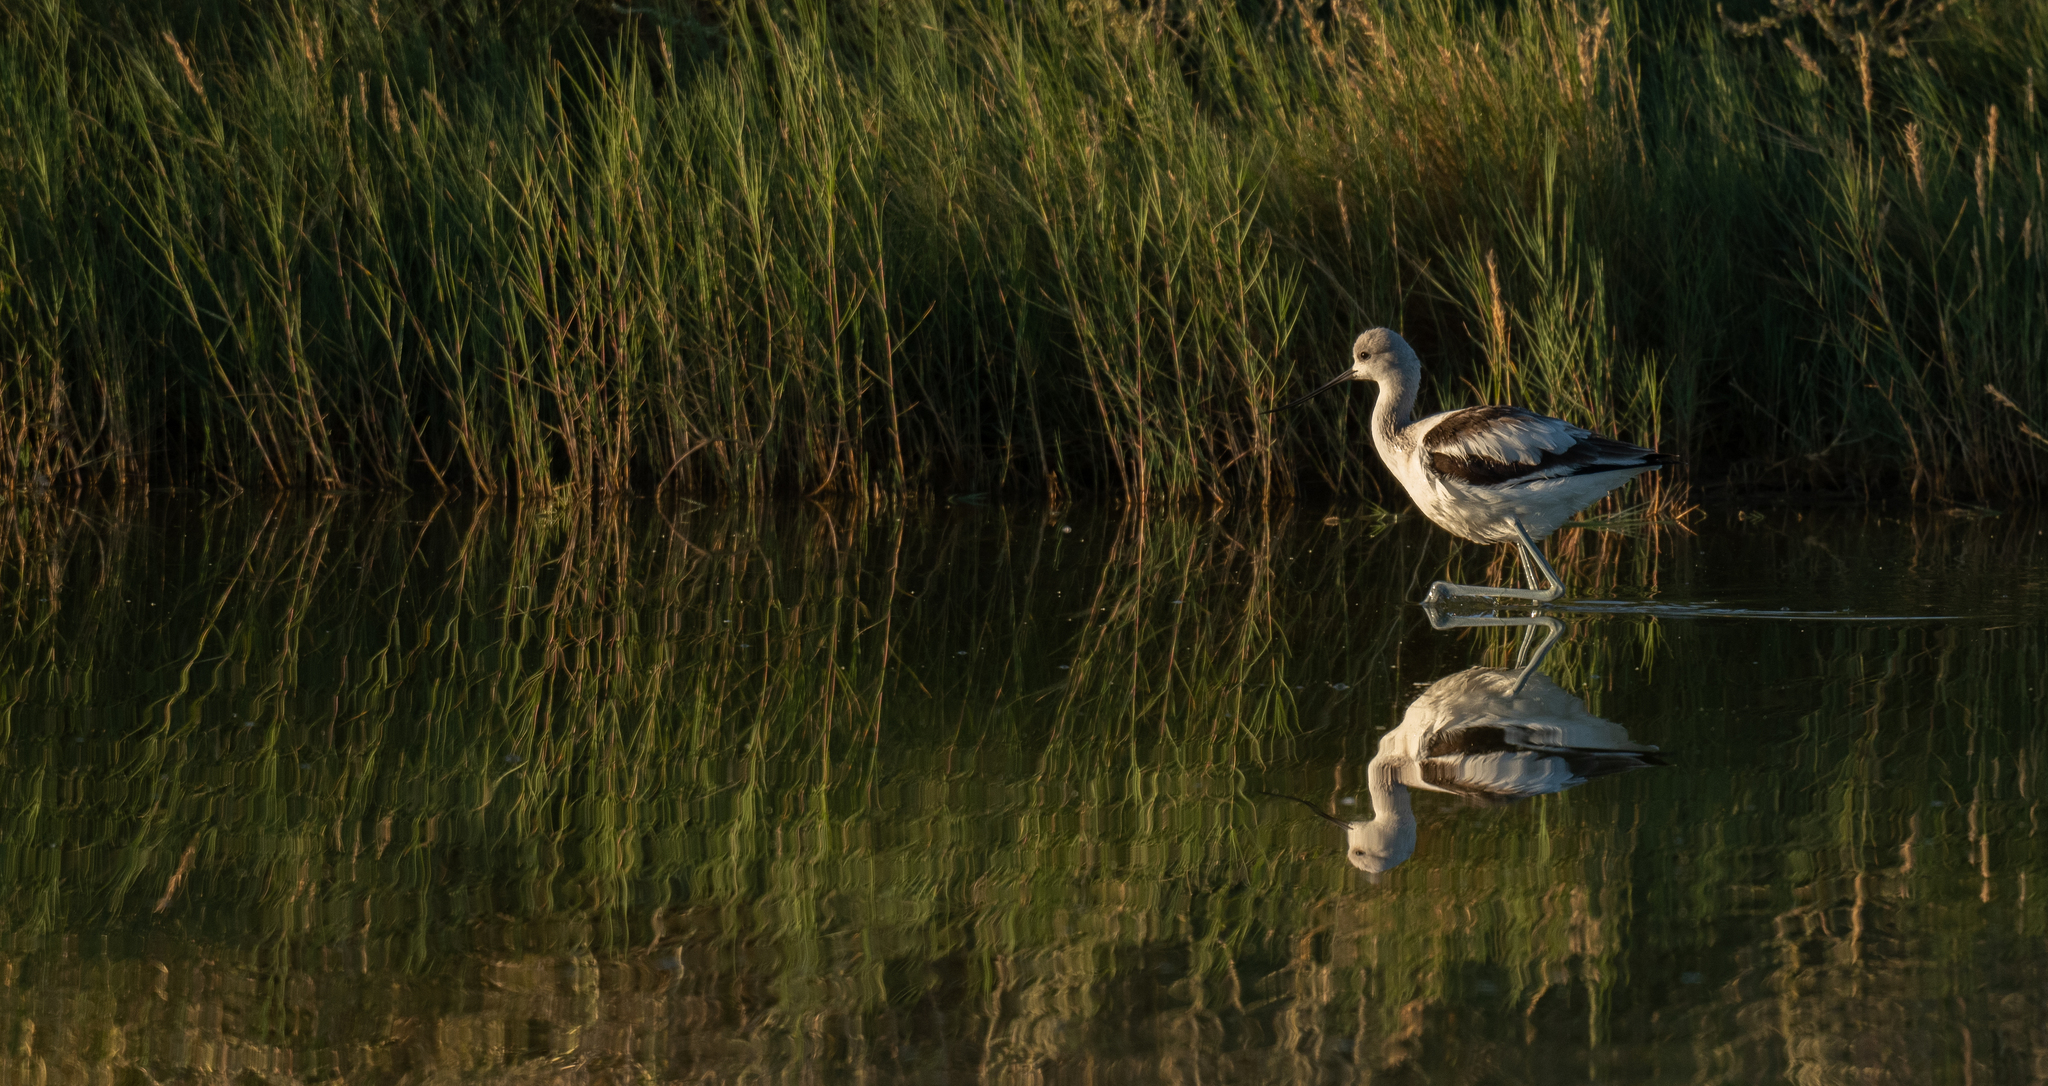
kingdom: Animalia
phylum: Chordata
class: Aves
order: Charadriiformes
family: Recurvirostridae
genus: Recurvirostra
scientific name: Recurvirostra americana
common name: American avocet
